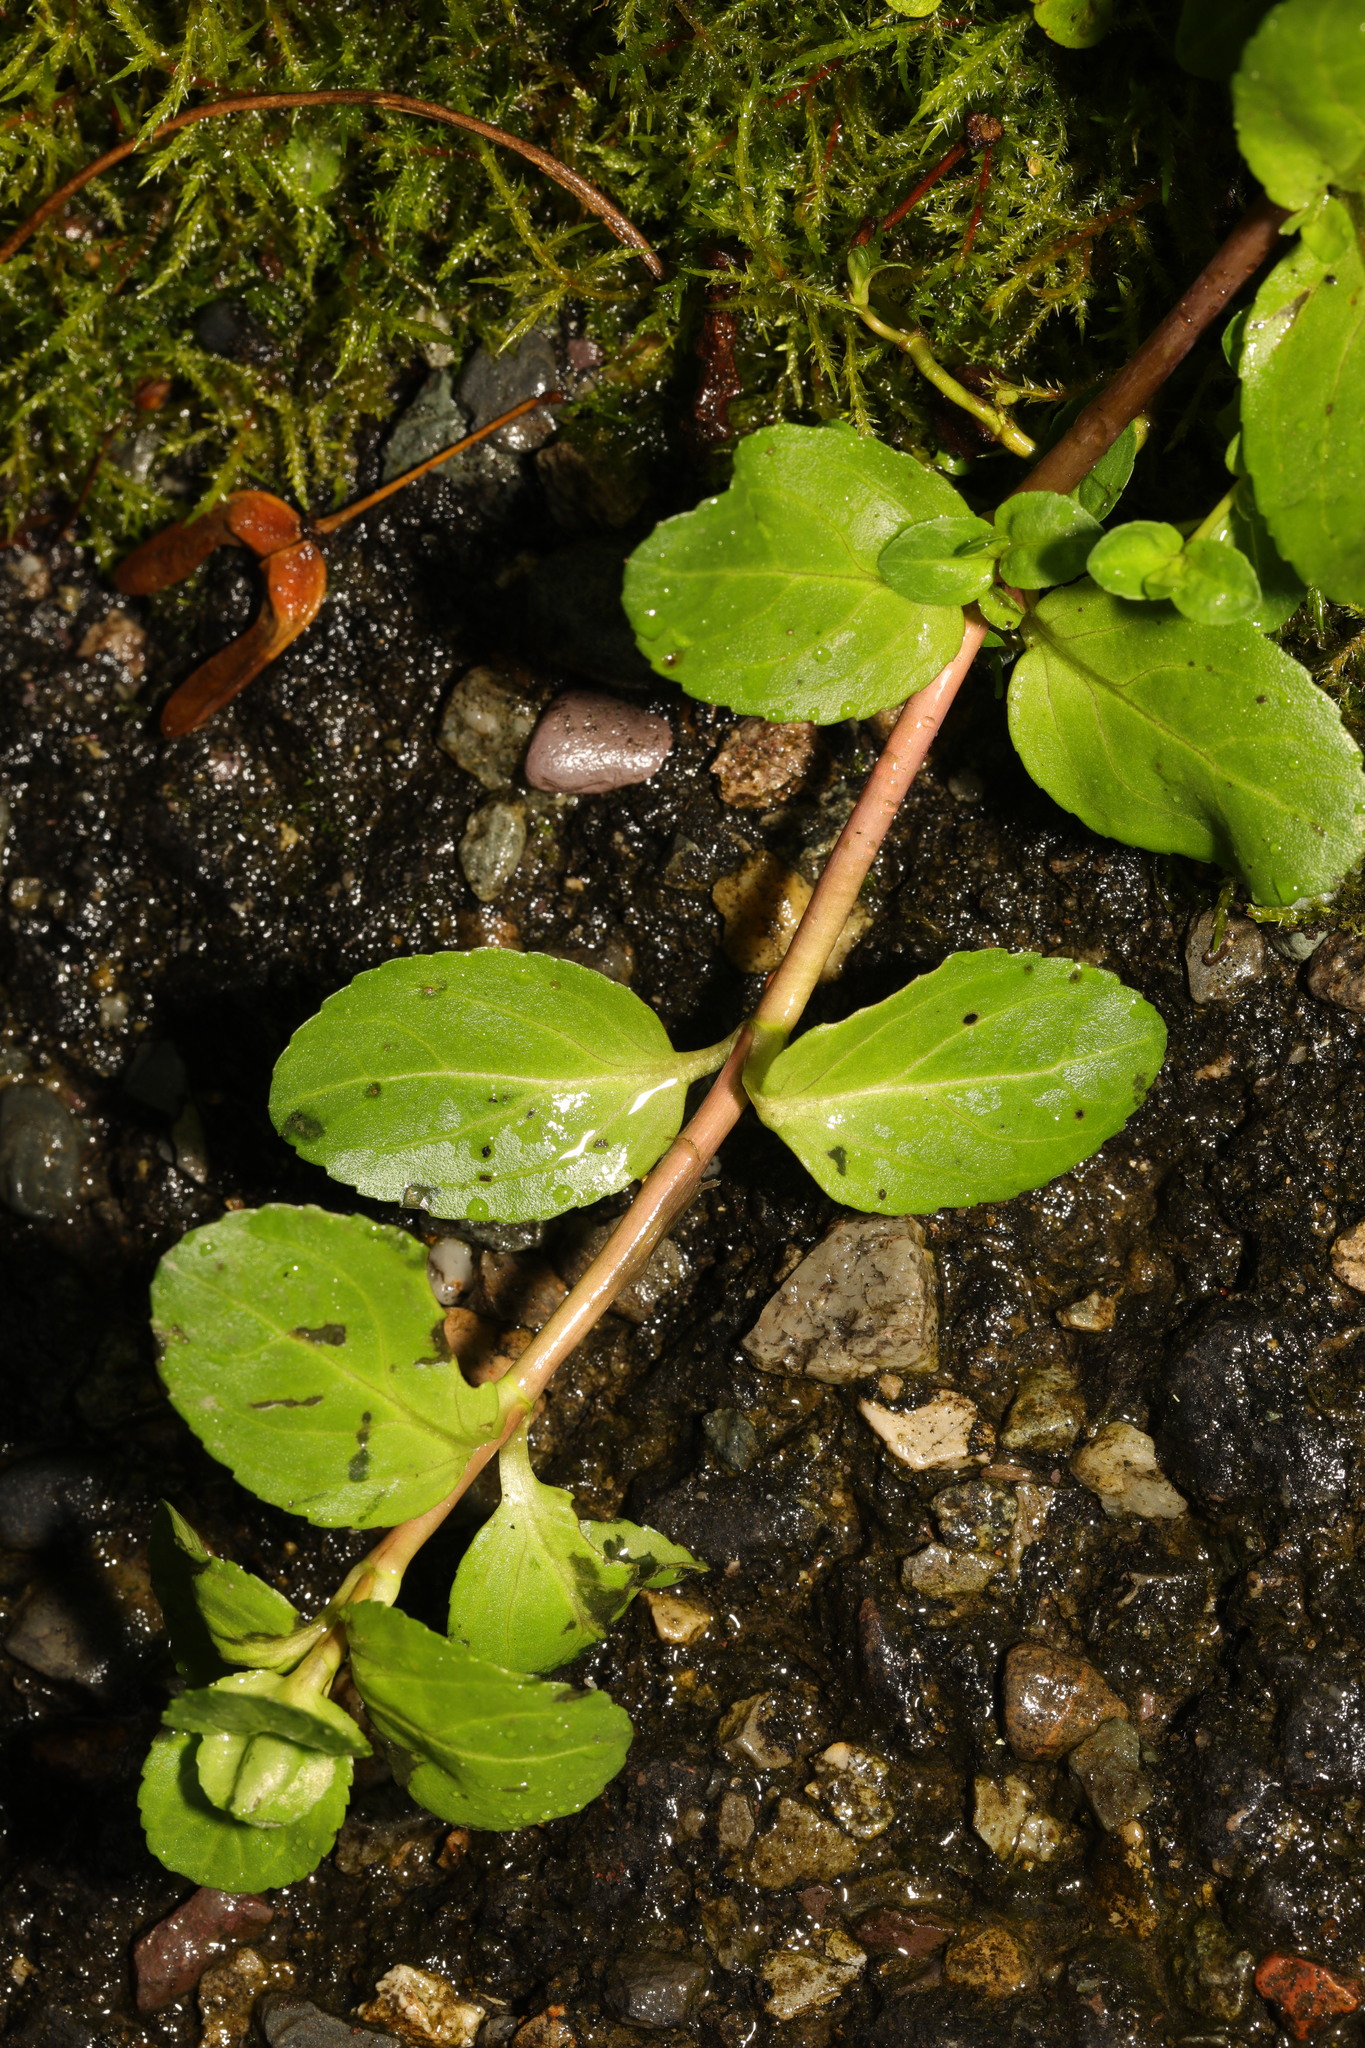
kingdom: Plantae
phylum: Tracheophyta
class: Magnoliopsida
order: Lamiales
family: Plantaginaceae
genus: Veronica
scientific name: Veronica beccabunga
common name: Brooklime
